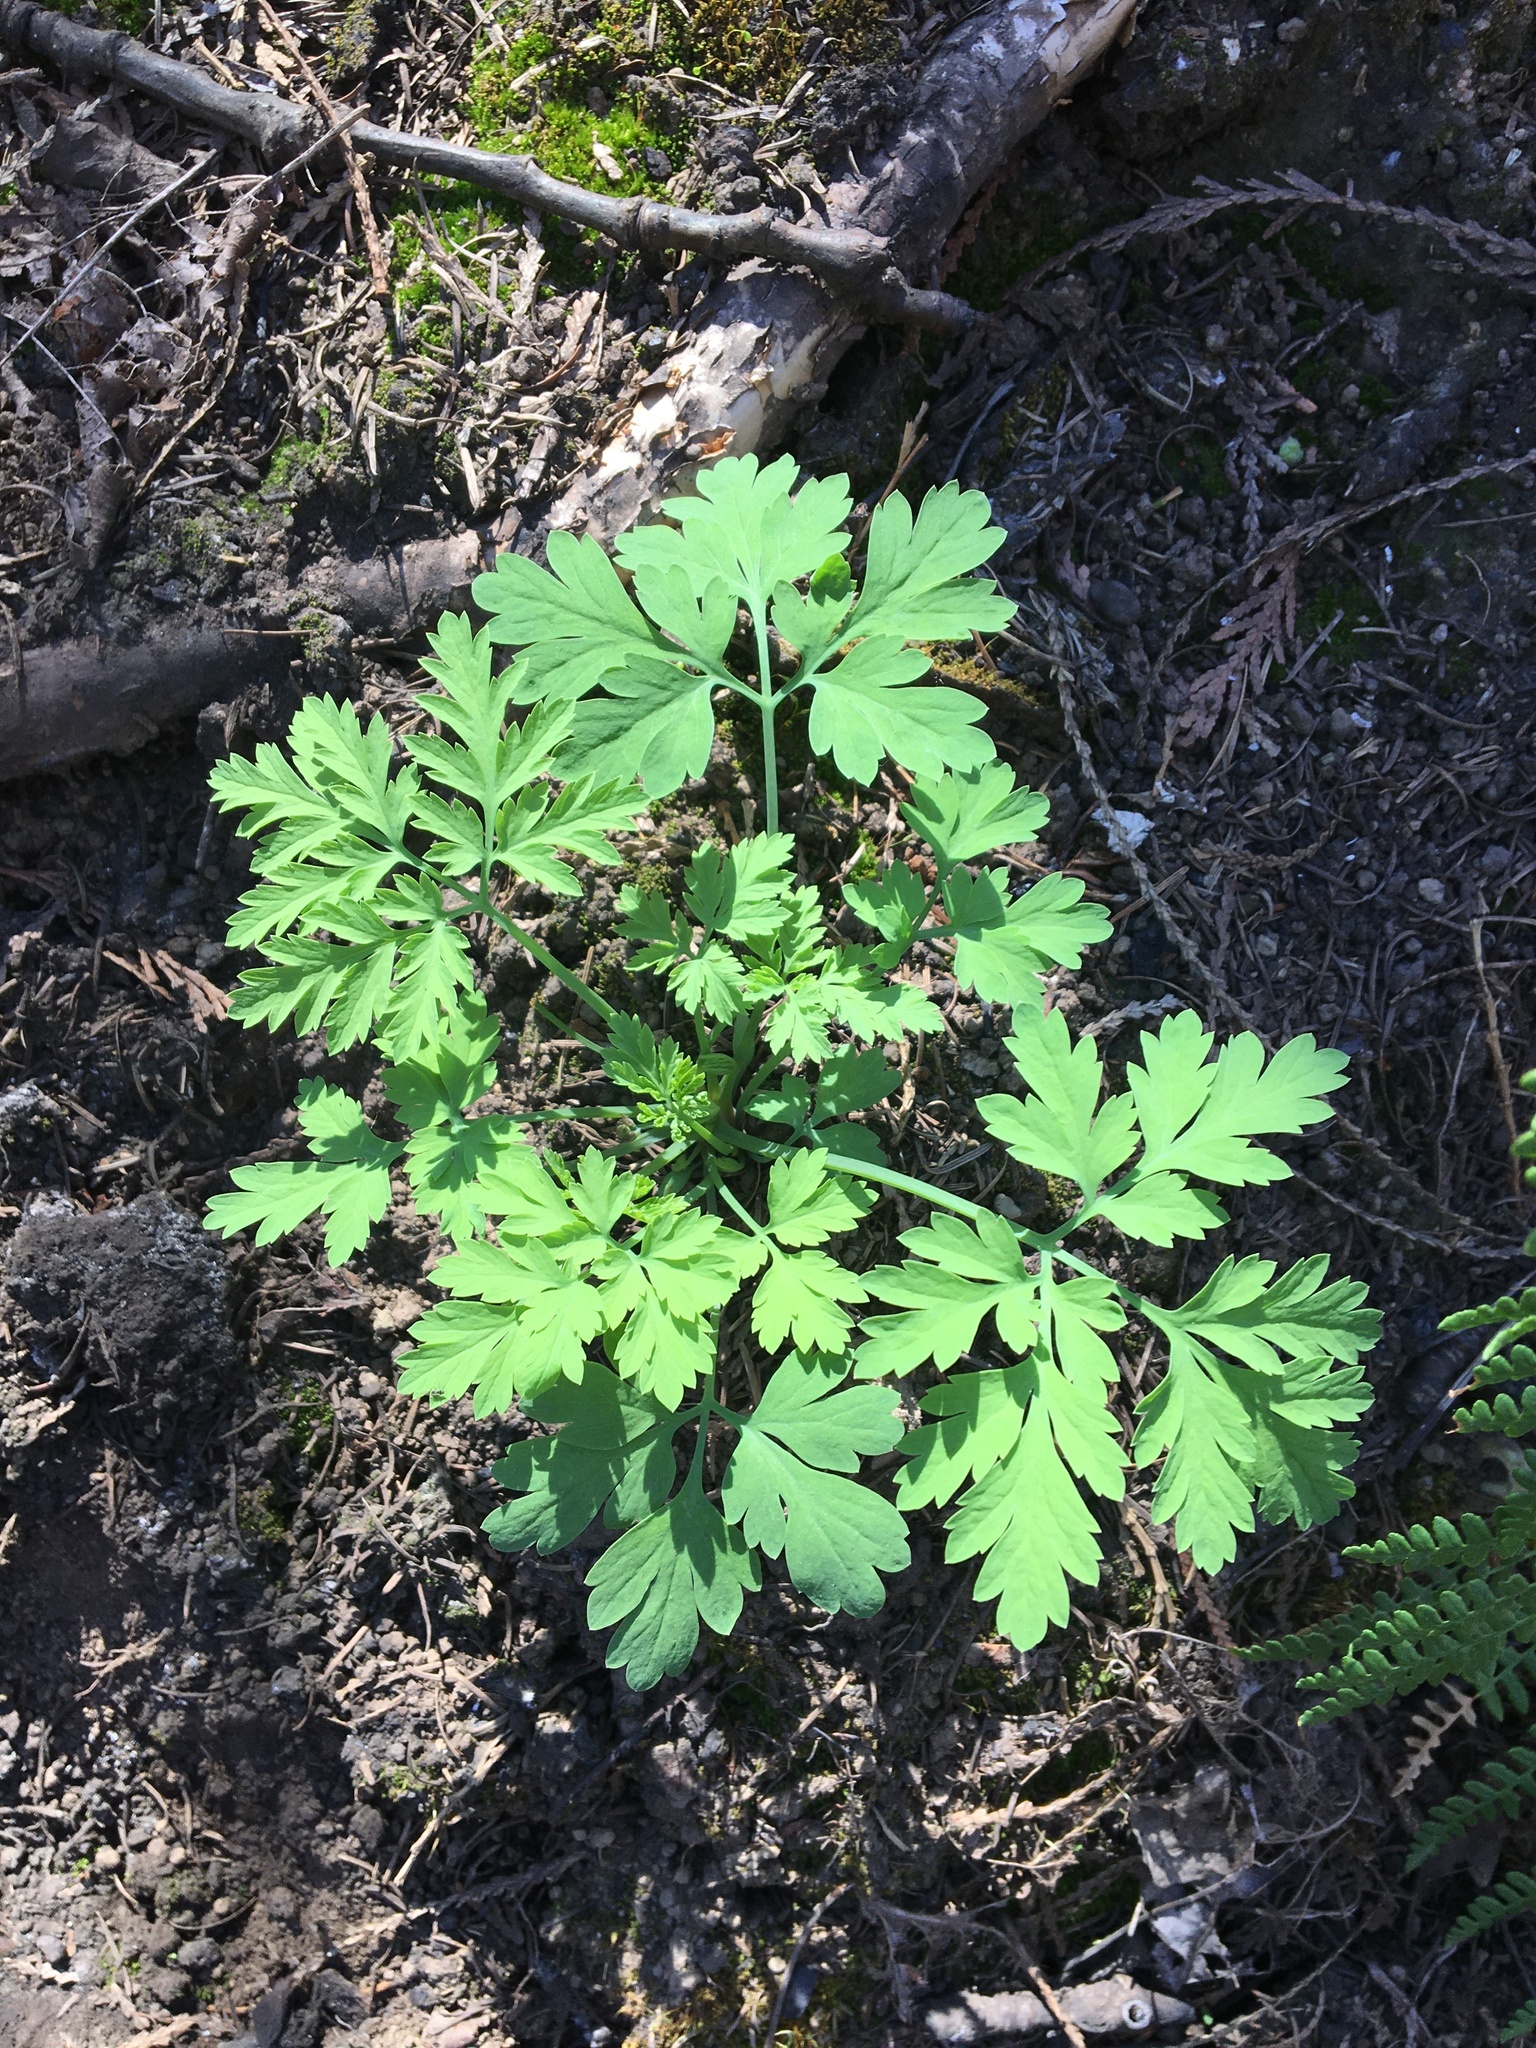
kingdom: Plantae
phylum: Tracheophyta
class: Magnoliopsida
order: Ranunculales
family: Papaveraceae
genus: Dicentra
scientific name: Dicentra formosa
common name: Bleeding-heart
